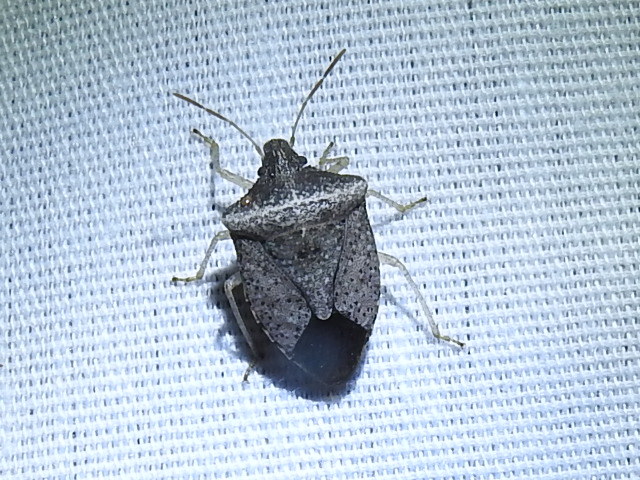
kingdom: Animalia
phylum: Arthropoda
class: Insecta
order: Hemiptera
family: Pentatomidae
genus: Euschistus
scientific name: Euschistus obscurus
